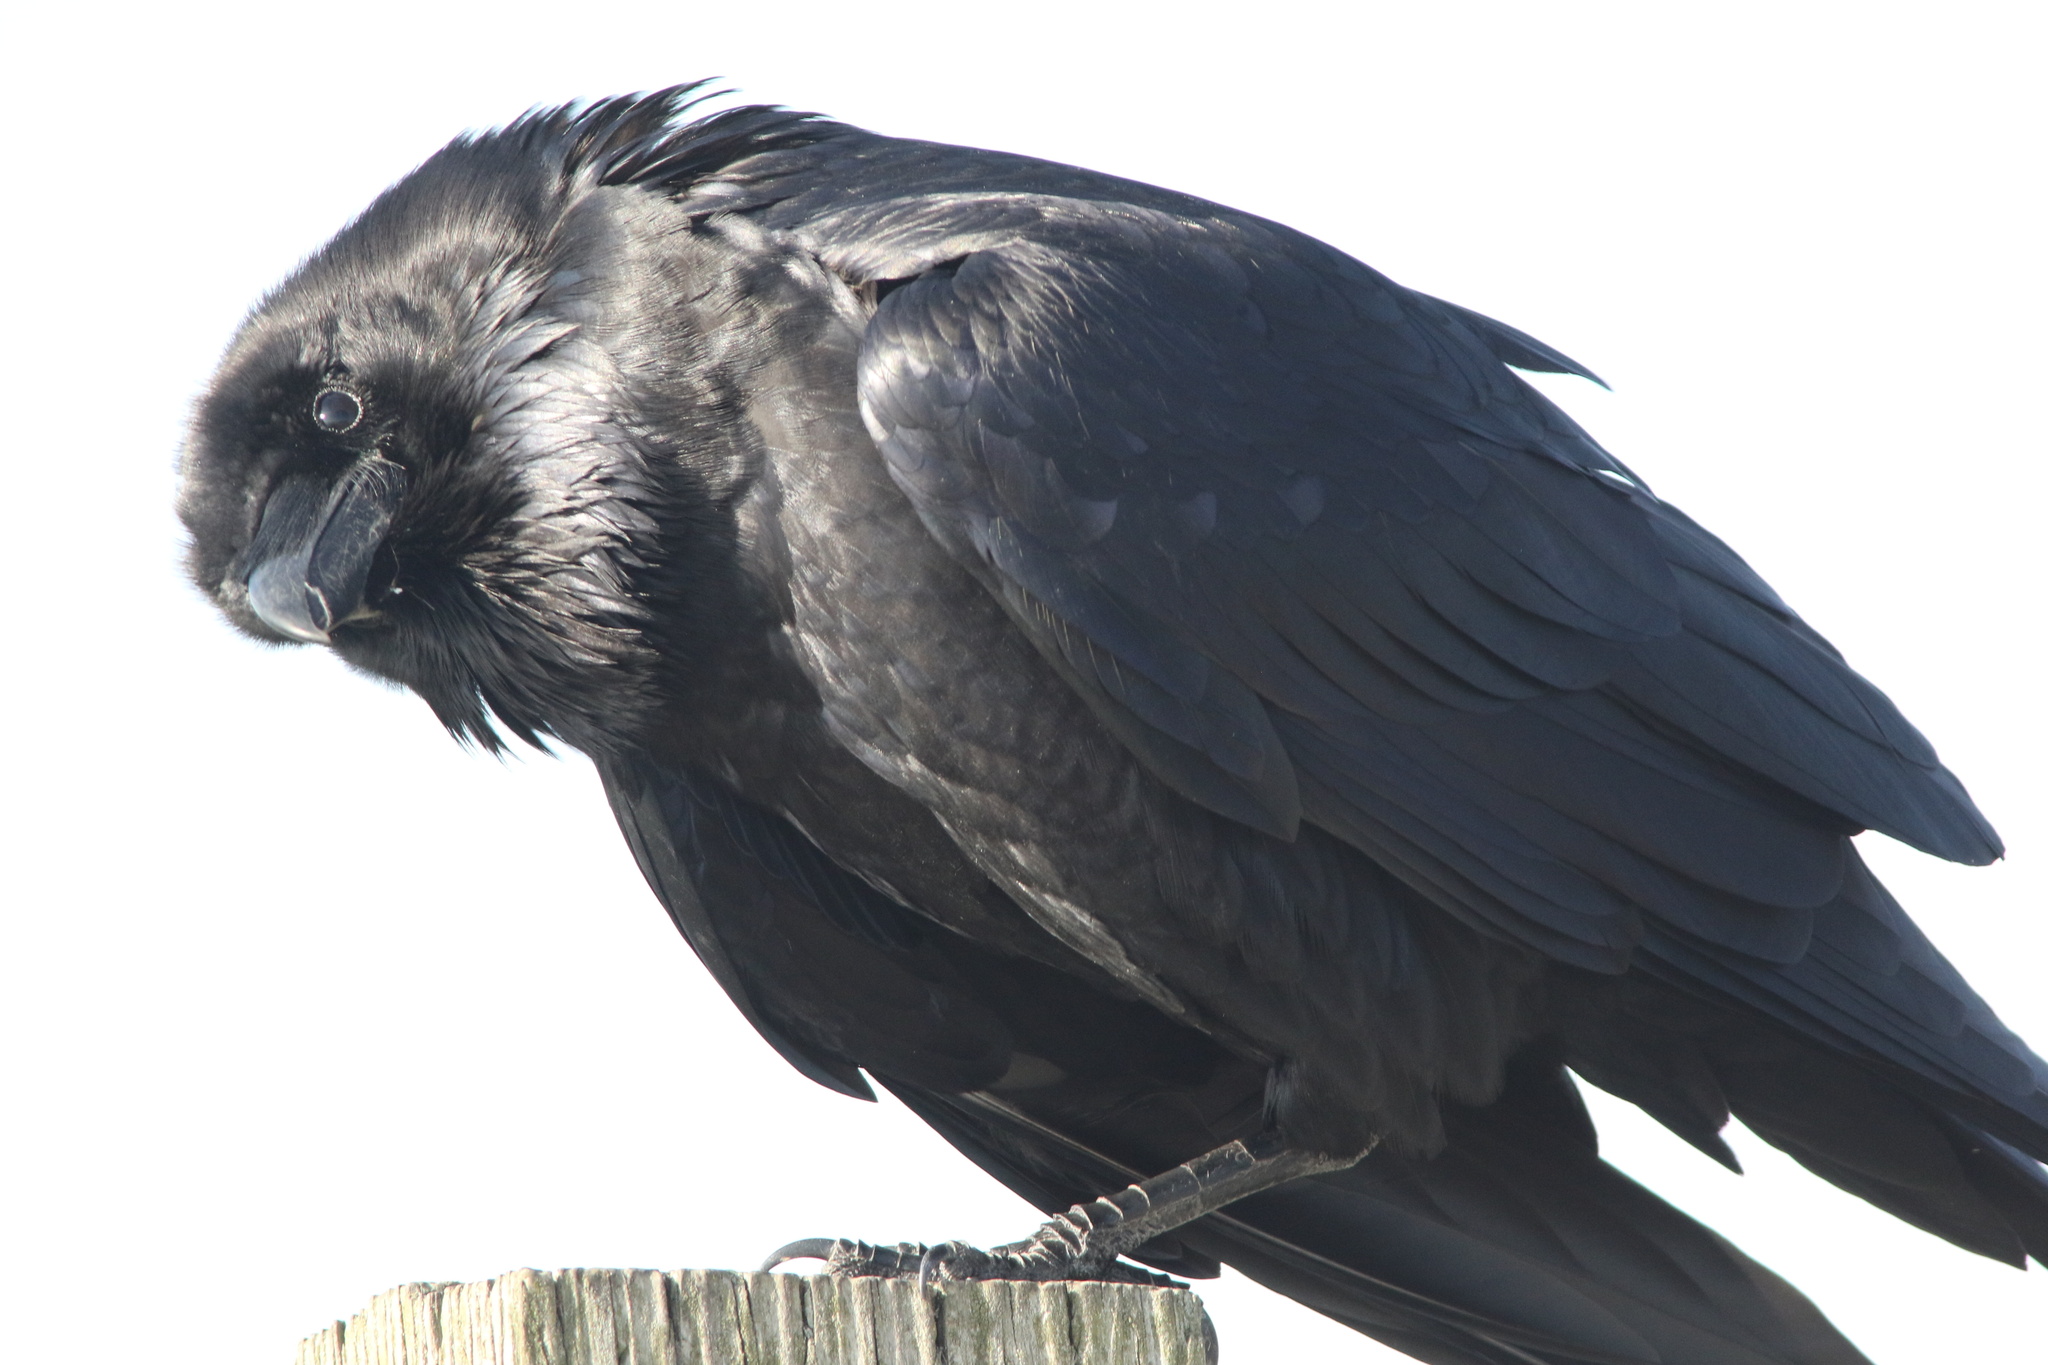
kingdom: Animalia
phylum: Chordata
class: Aves
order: Passeriformes
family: Corvidae
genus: Corvus
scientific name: Corvus corax
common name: Common raven
